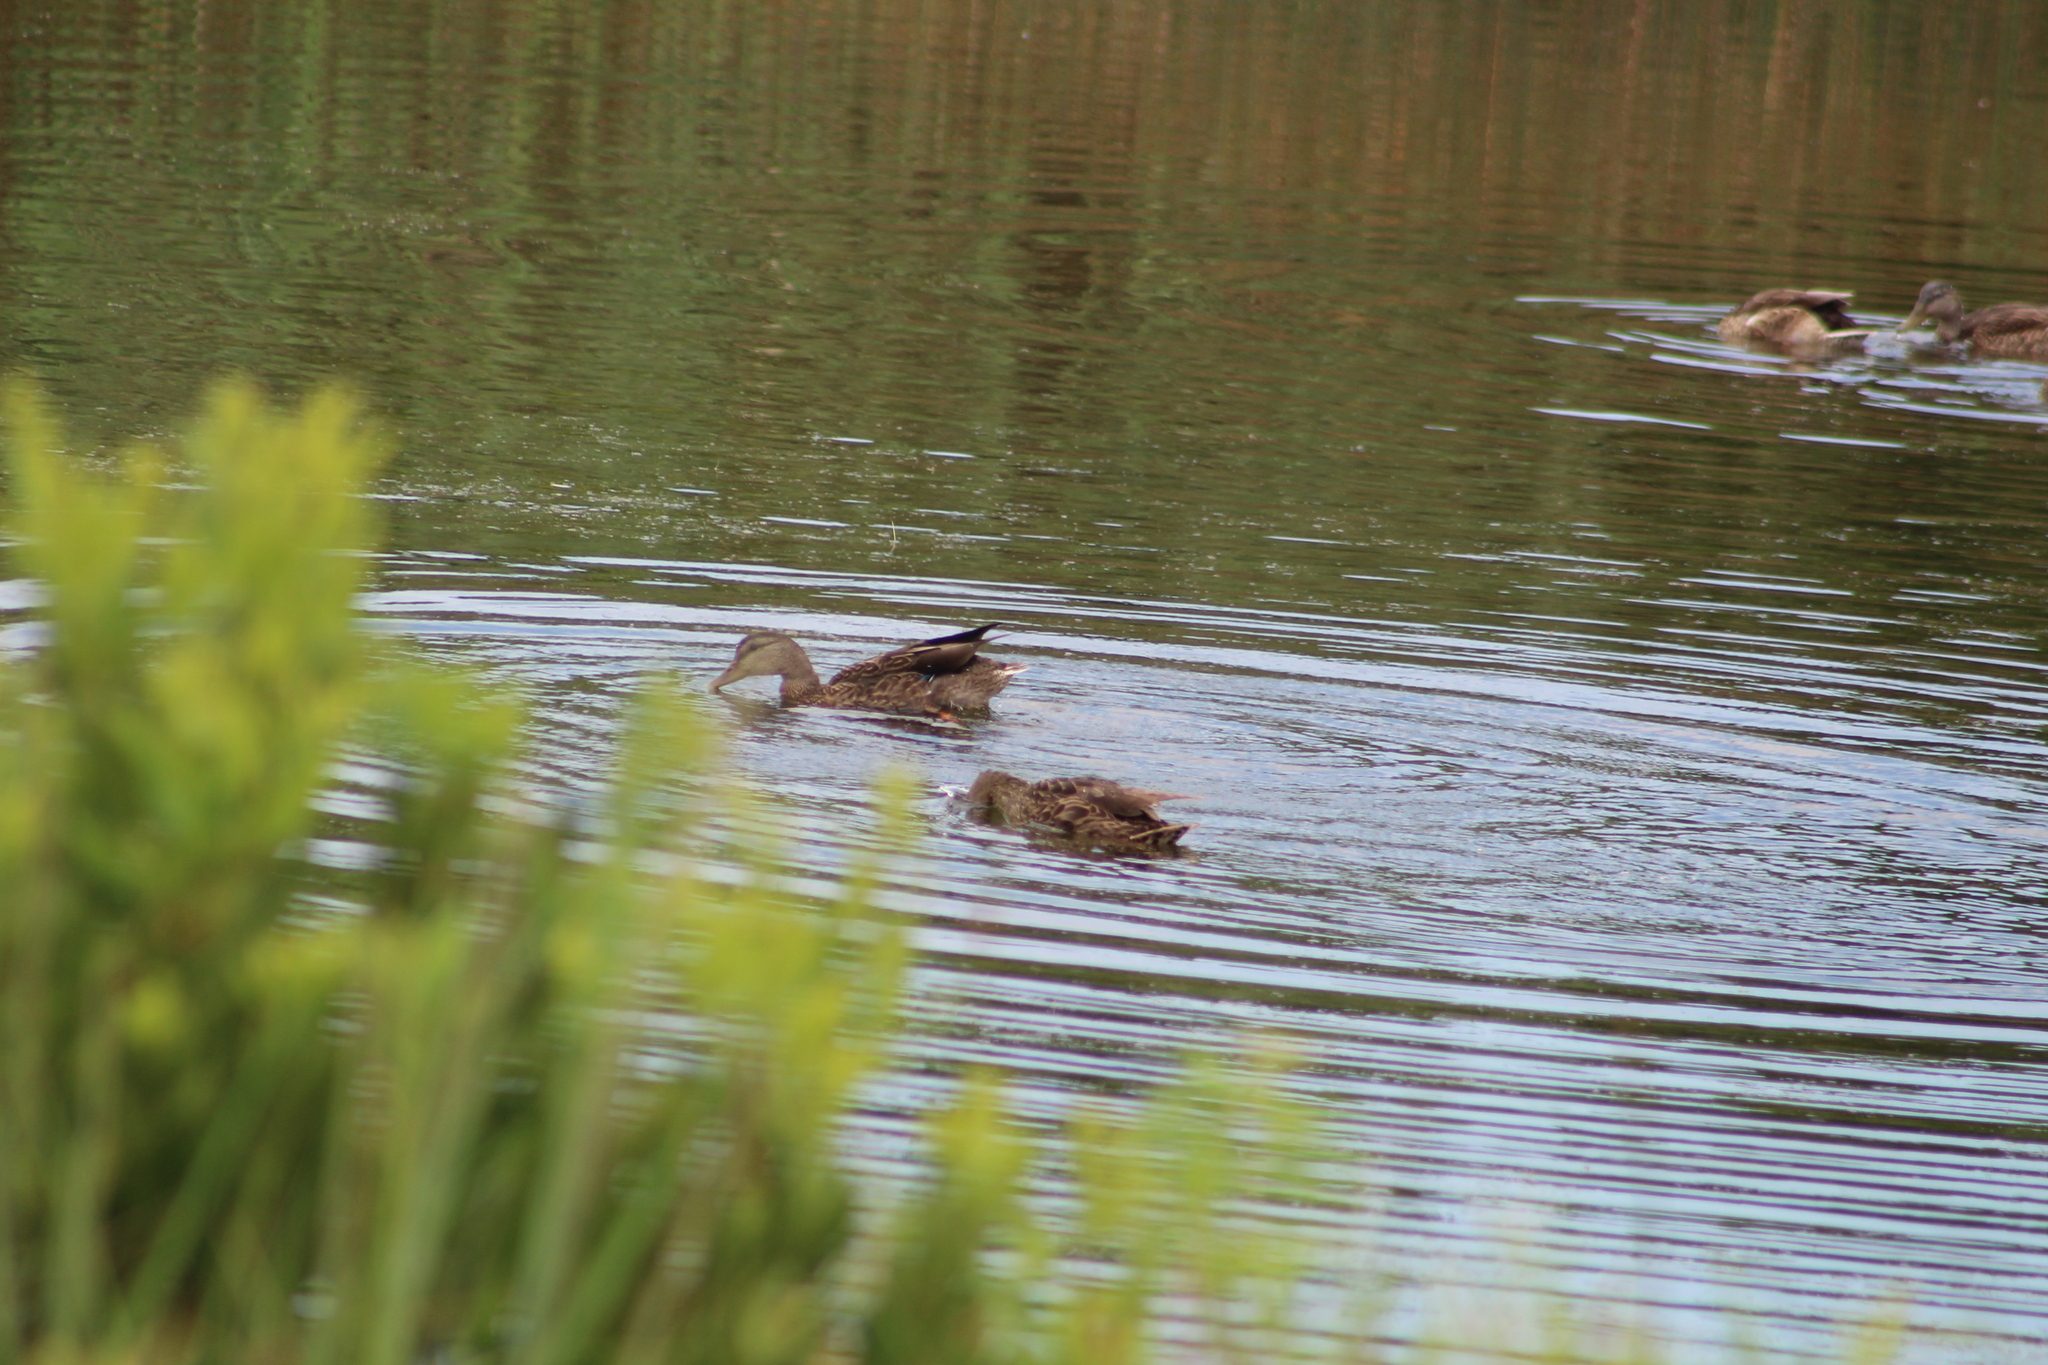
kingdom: Animalia
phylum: Chordata
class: Aves
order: Anseriformes
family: Anatidae
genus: Anas
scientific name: Anas platyrhynchos
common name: Mallard
